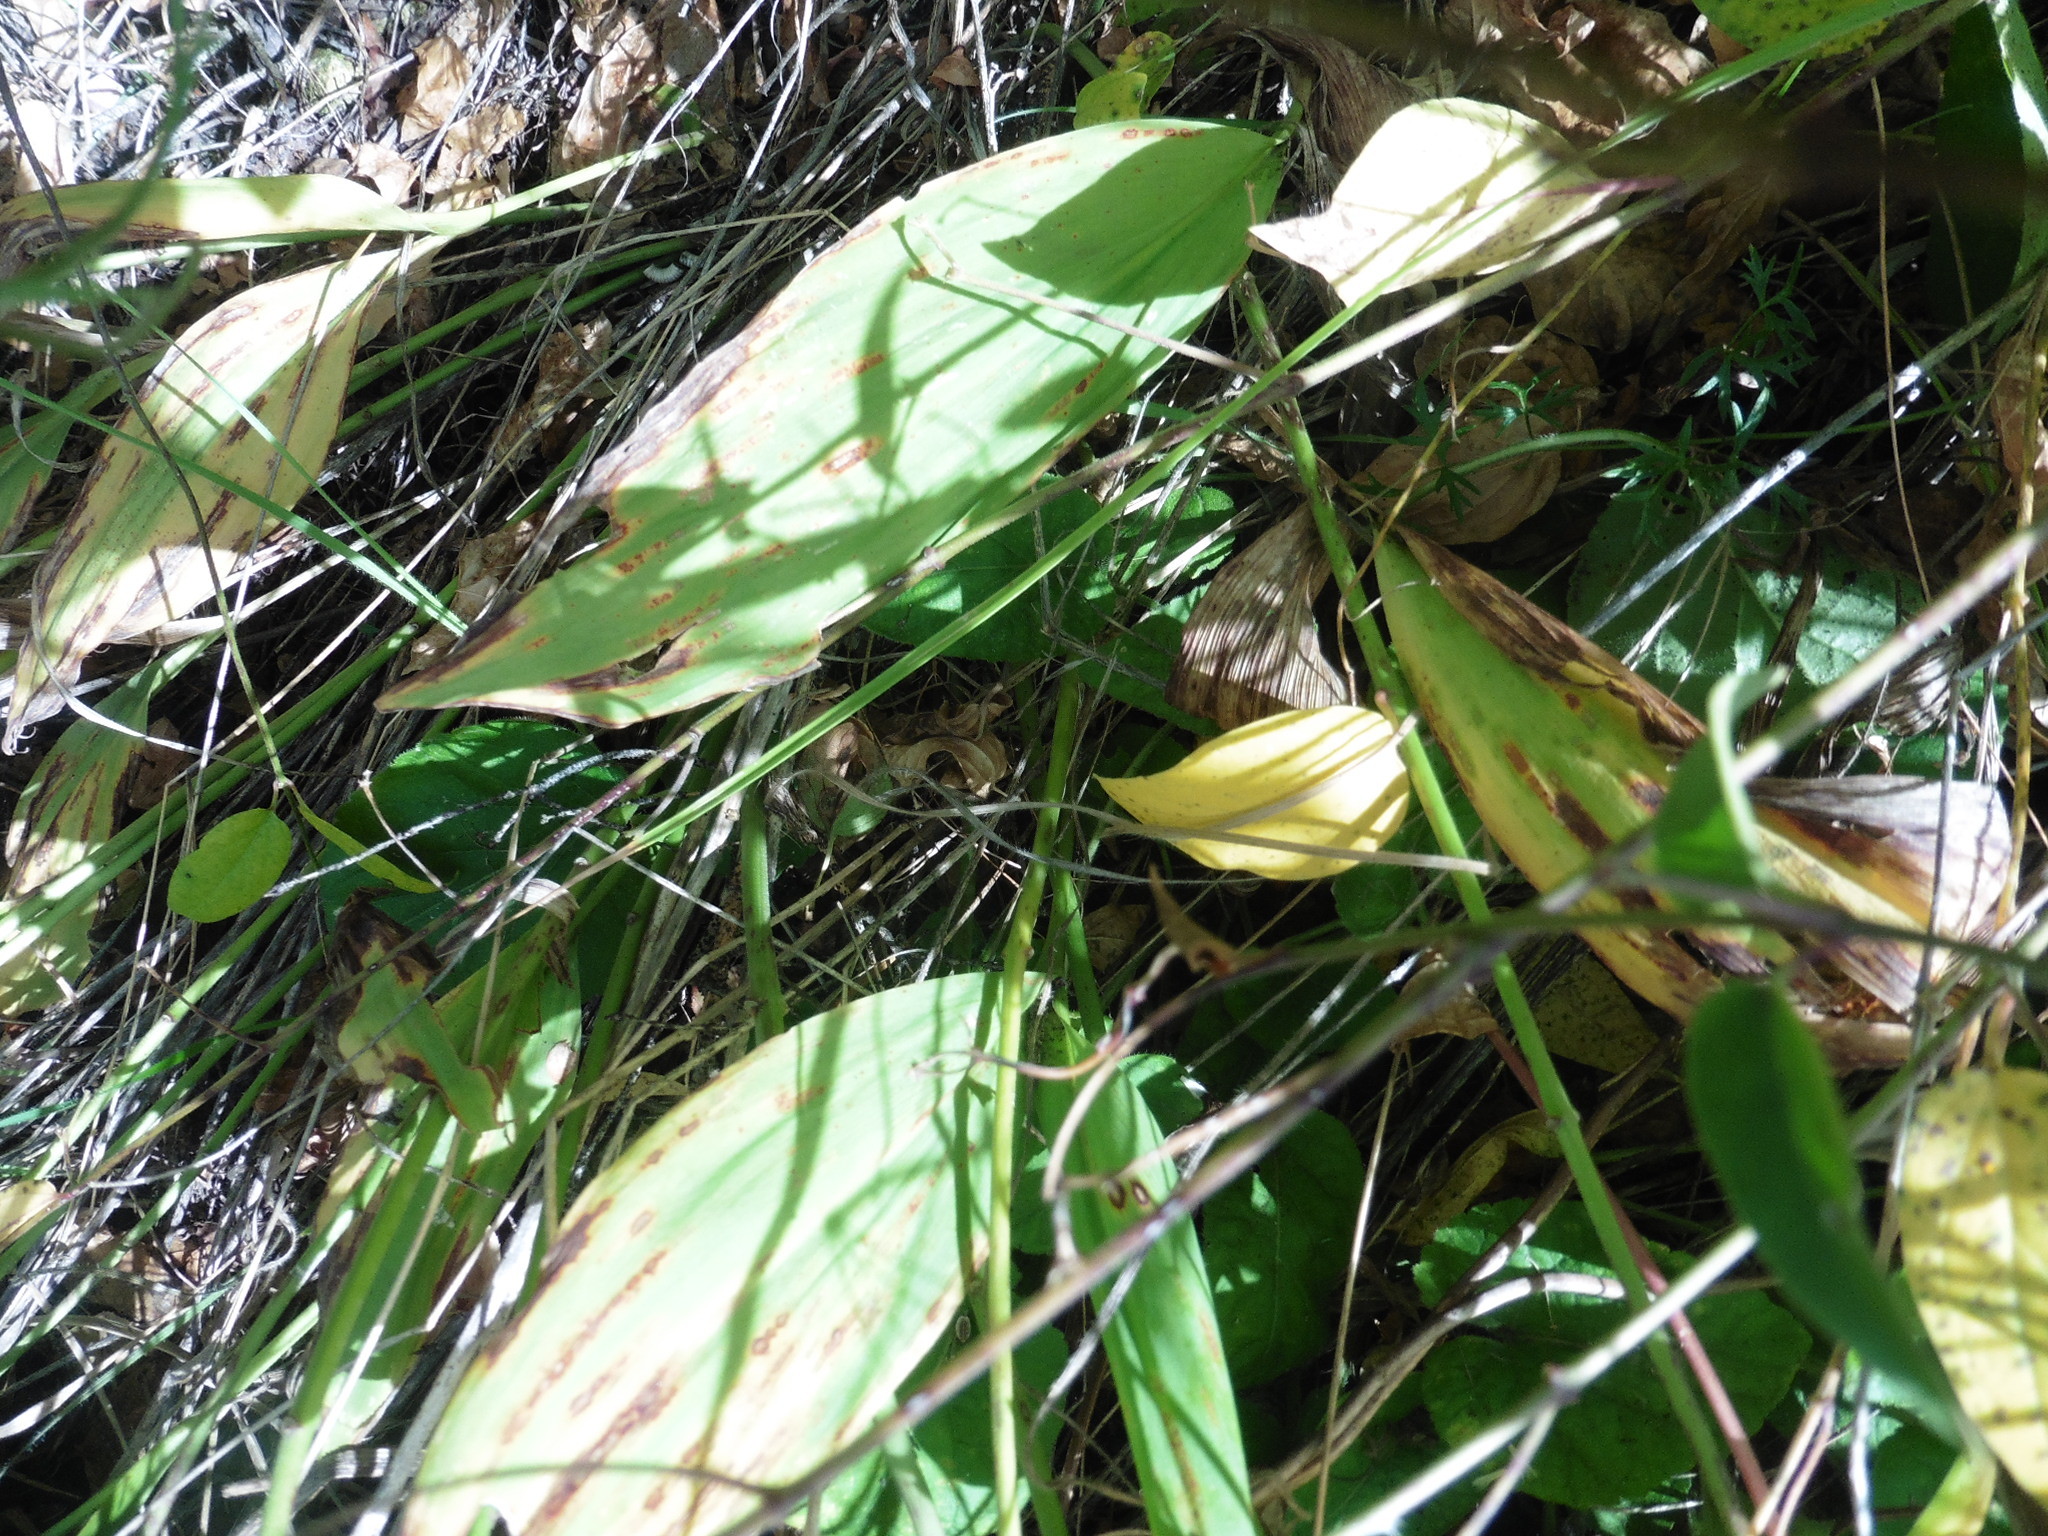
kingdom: Plantae
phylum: Tracheophyta
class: Liliopsida
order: Asparagales
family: Asparagaceae
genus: Convallaria
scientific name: Convallaria majalis
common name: Lily-of-the-valley
